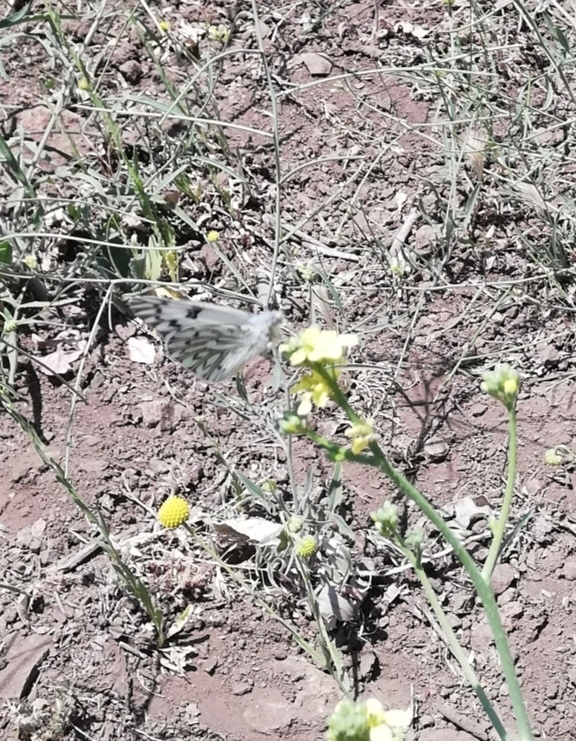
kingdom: Animalia
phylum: Arthropoda
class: Insecta
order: Lepidoptera
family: Pieridae
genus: Tatochila
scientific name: Tatochila autodice
